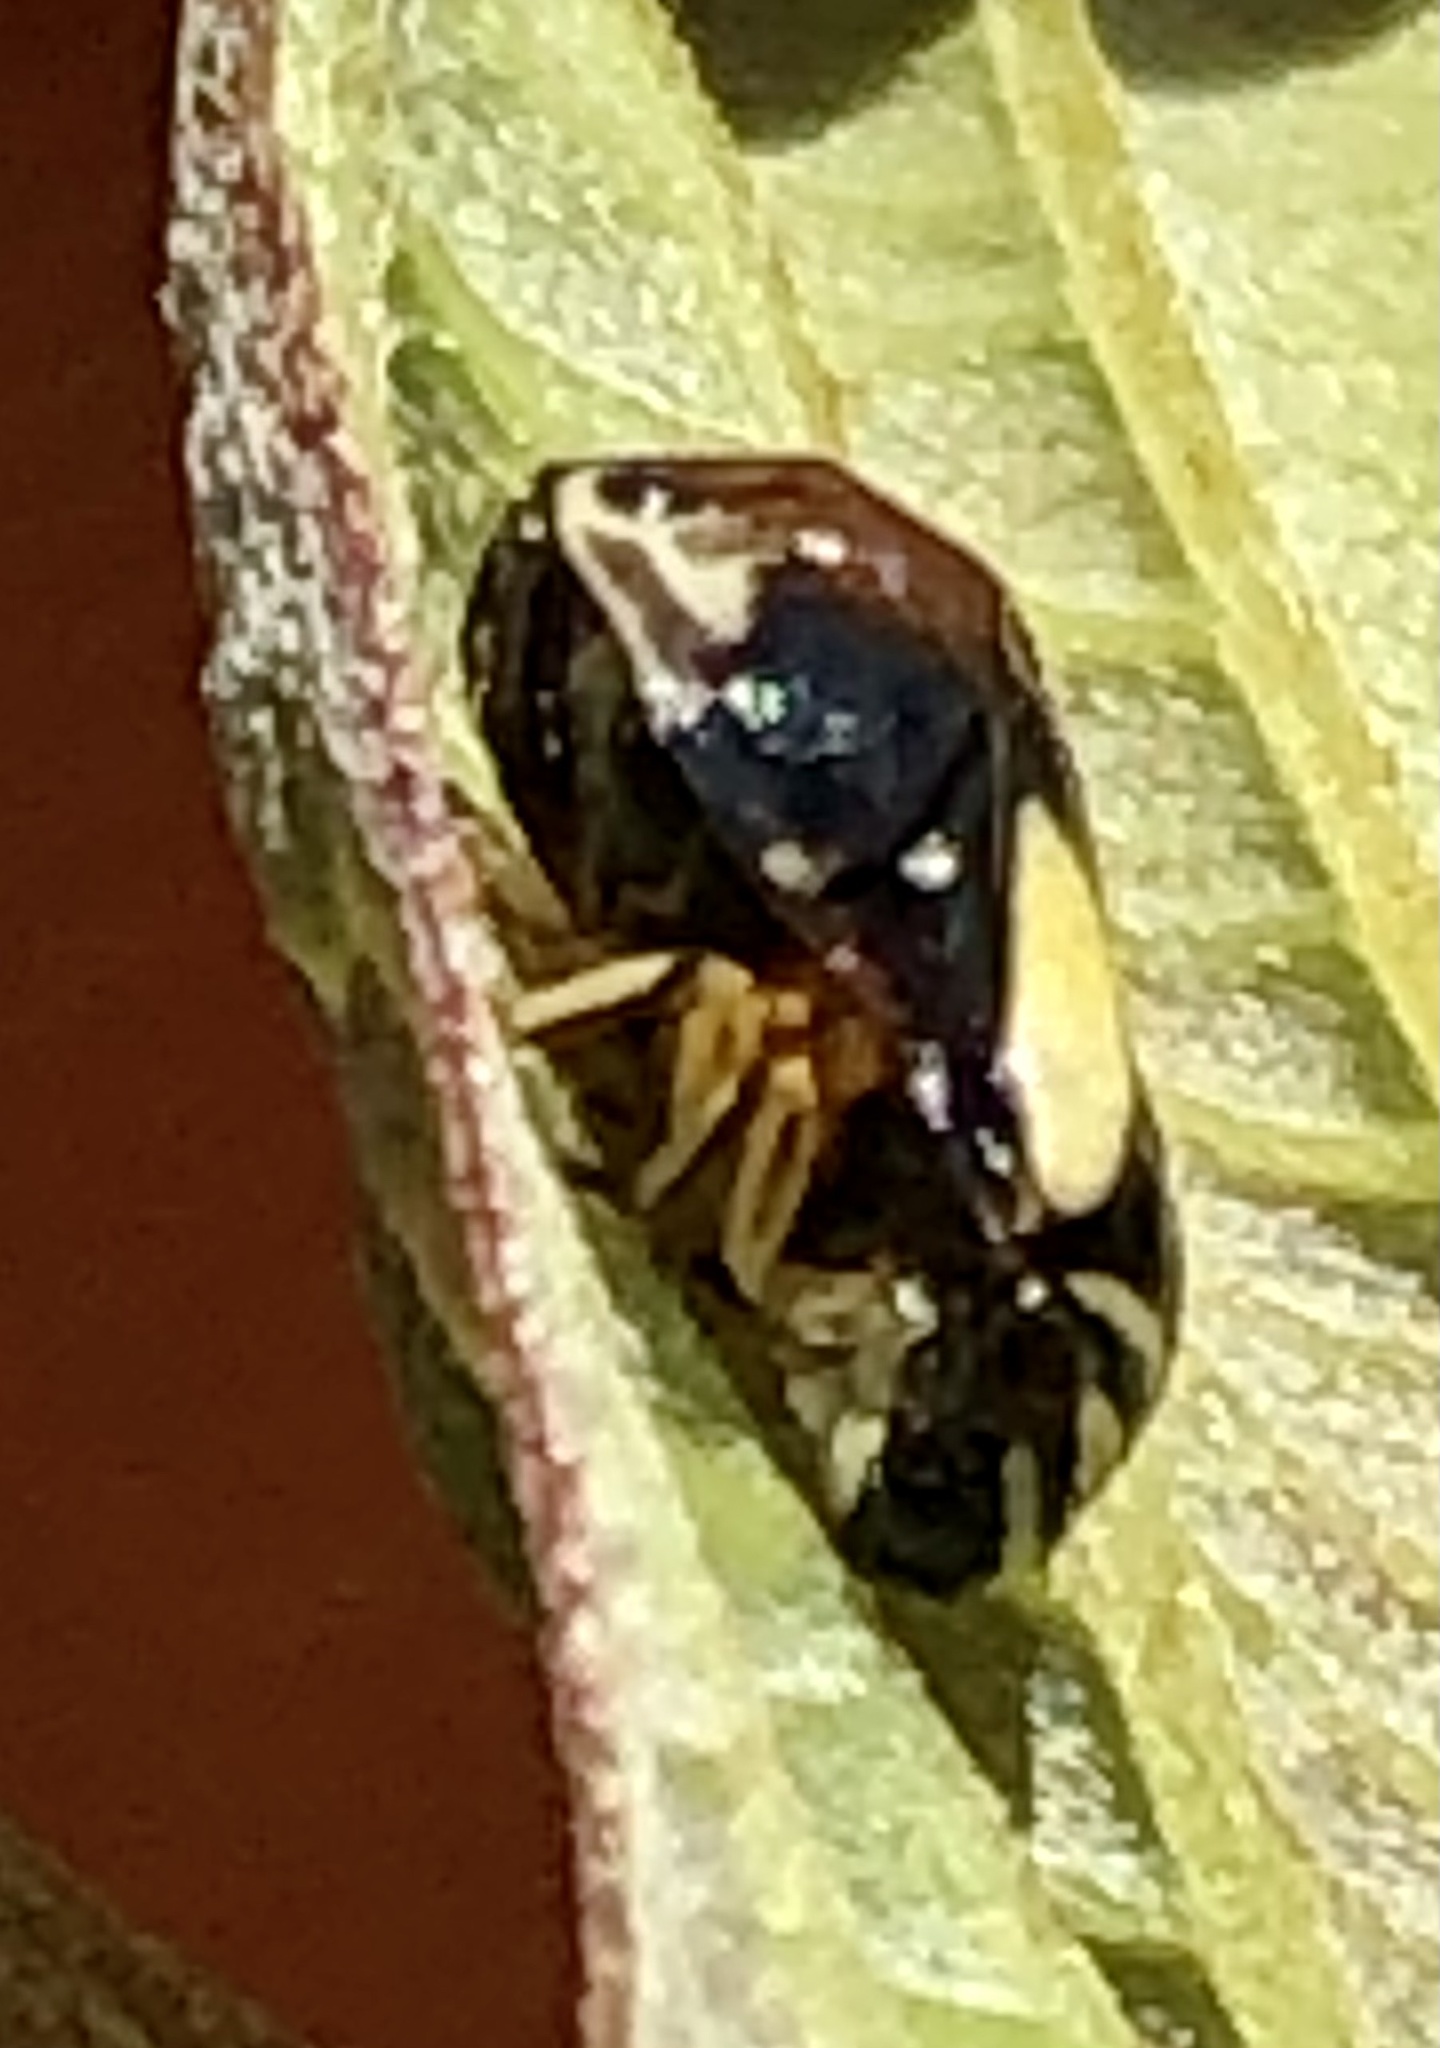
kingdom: Animalia
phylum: Arthropoda
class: Insecta
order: Hemiptera
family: Clastopteridae
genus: Clastoptera
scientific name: Clastoptera proteus
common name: Dogwood spittlebug
